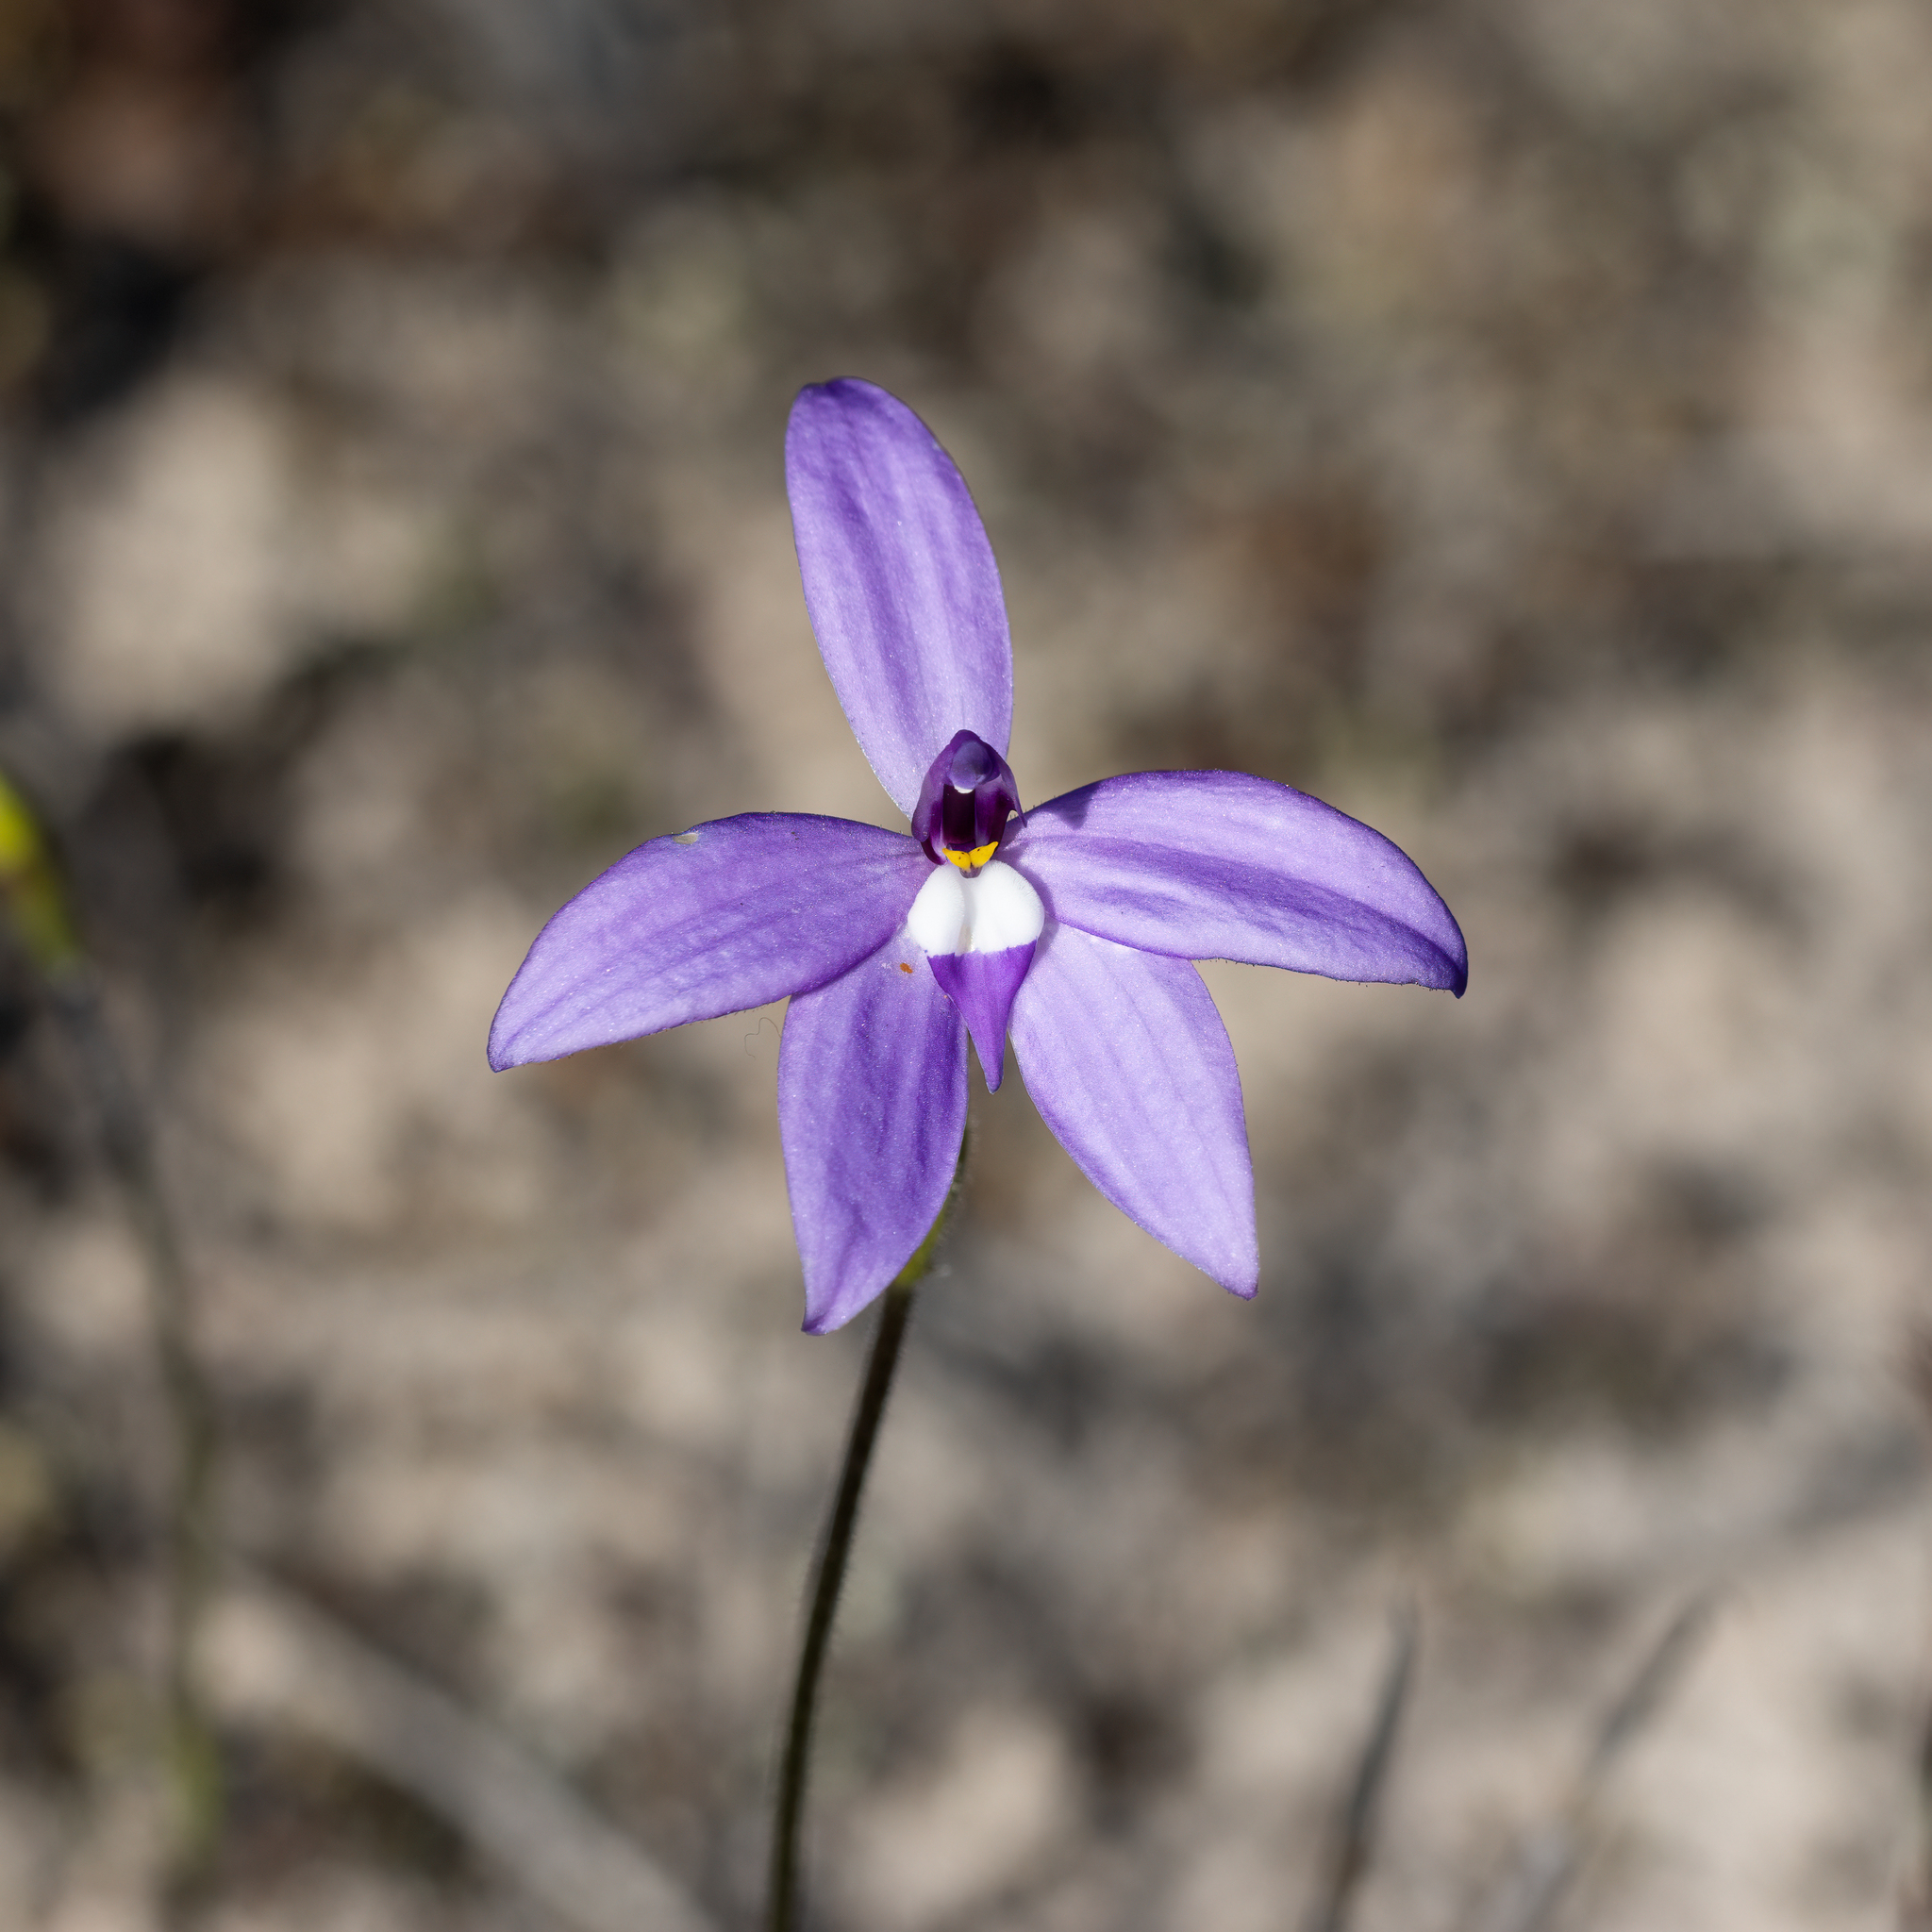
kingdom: Plantae
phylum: Tracheophyta
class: Liliopsida
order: Asparagales
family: Orchidaceae
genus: Caladenia
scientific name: Caladenia major
